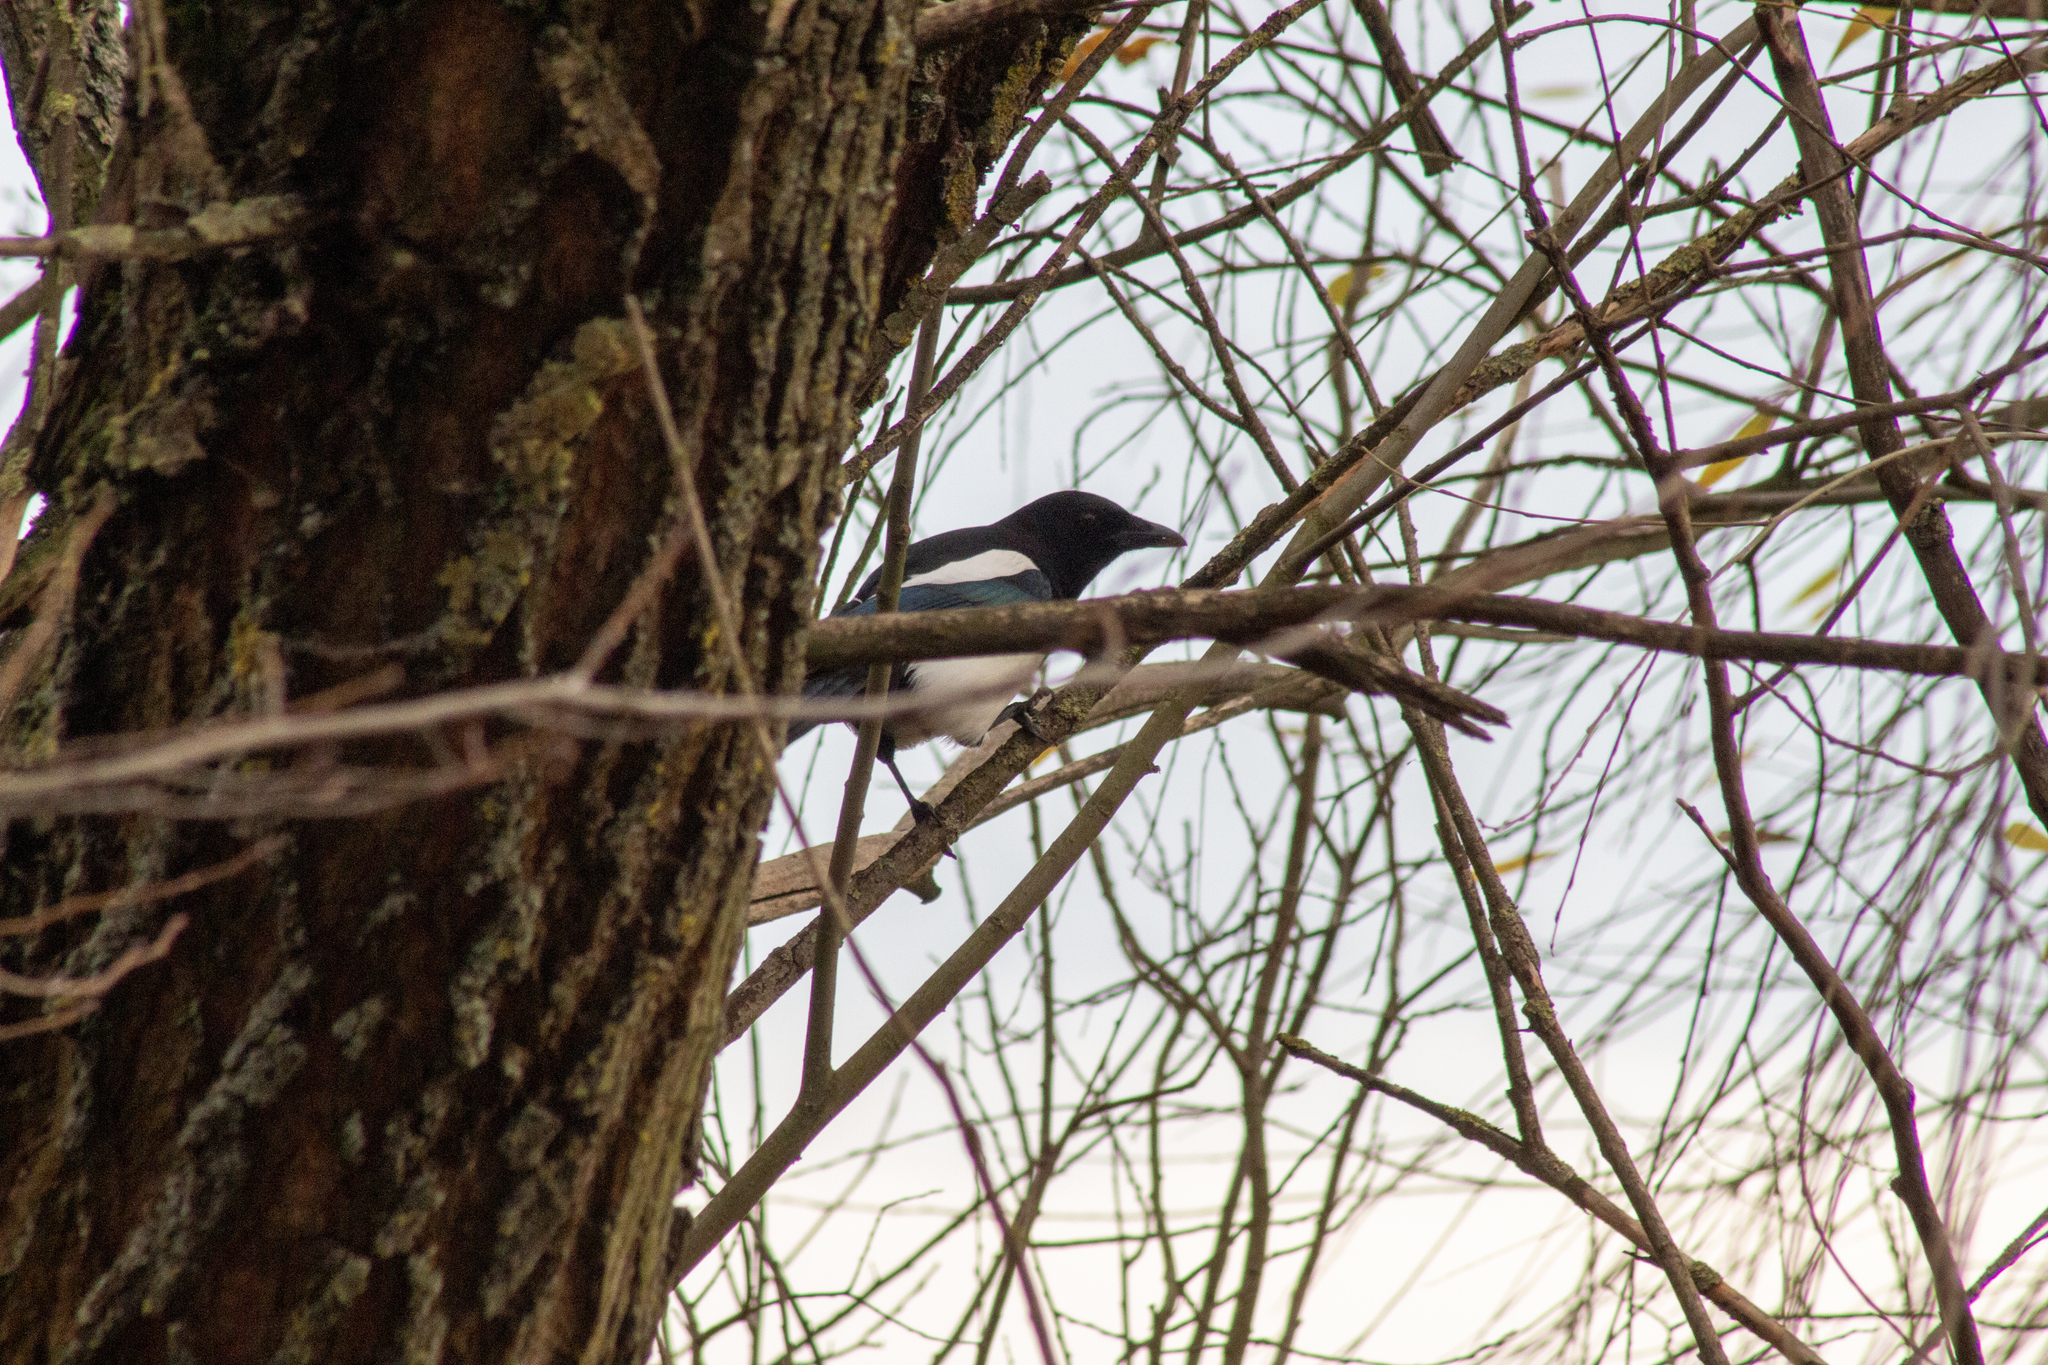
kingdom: Animalia
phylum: Chordata
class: Aves
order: Passeriformes
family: Corvidae
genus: Pica
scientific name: Pica pica
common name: Eurasian magpie
